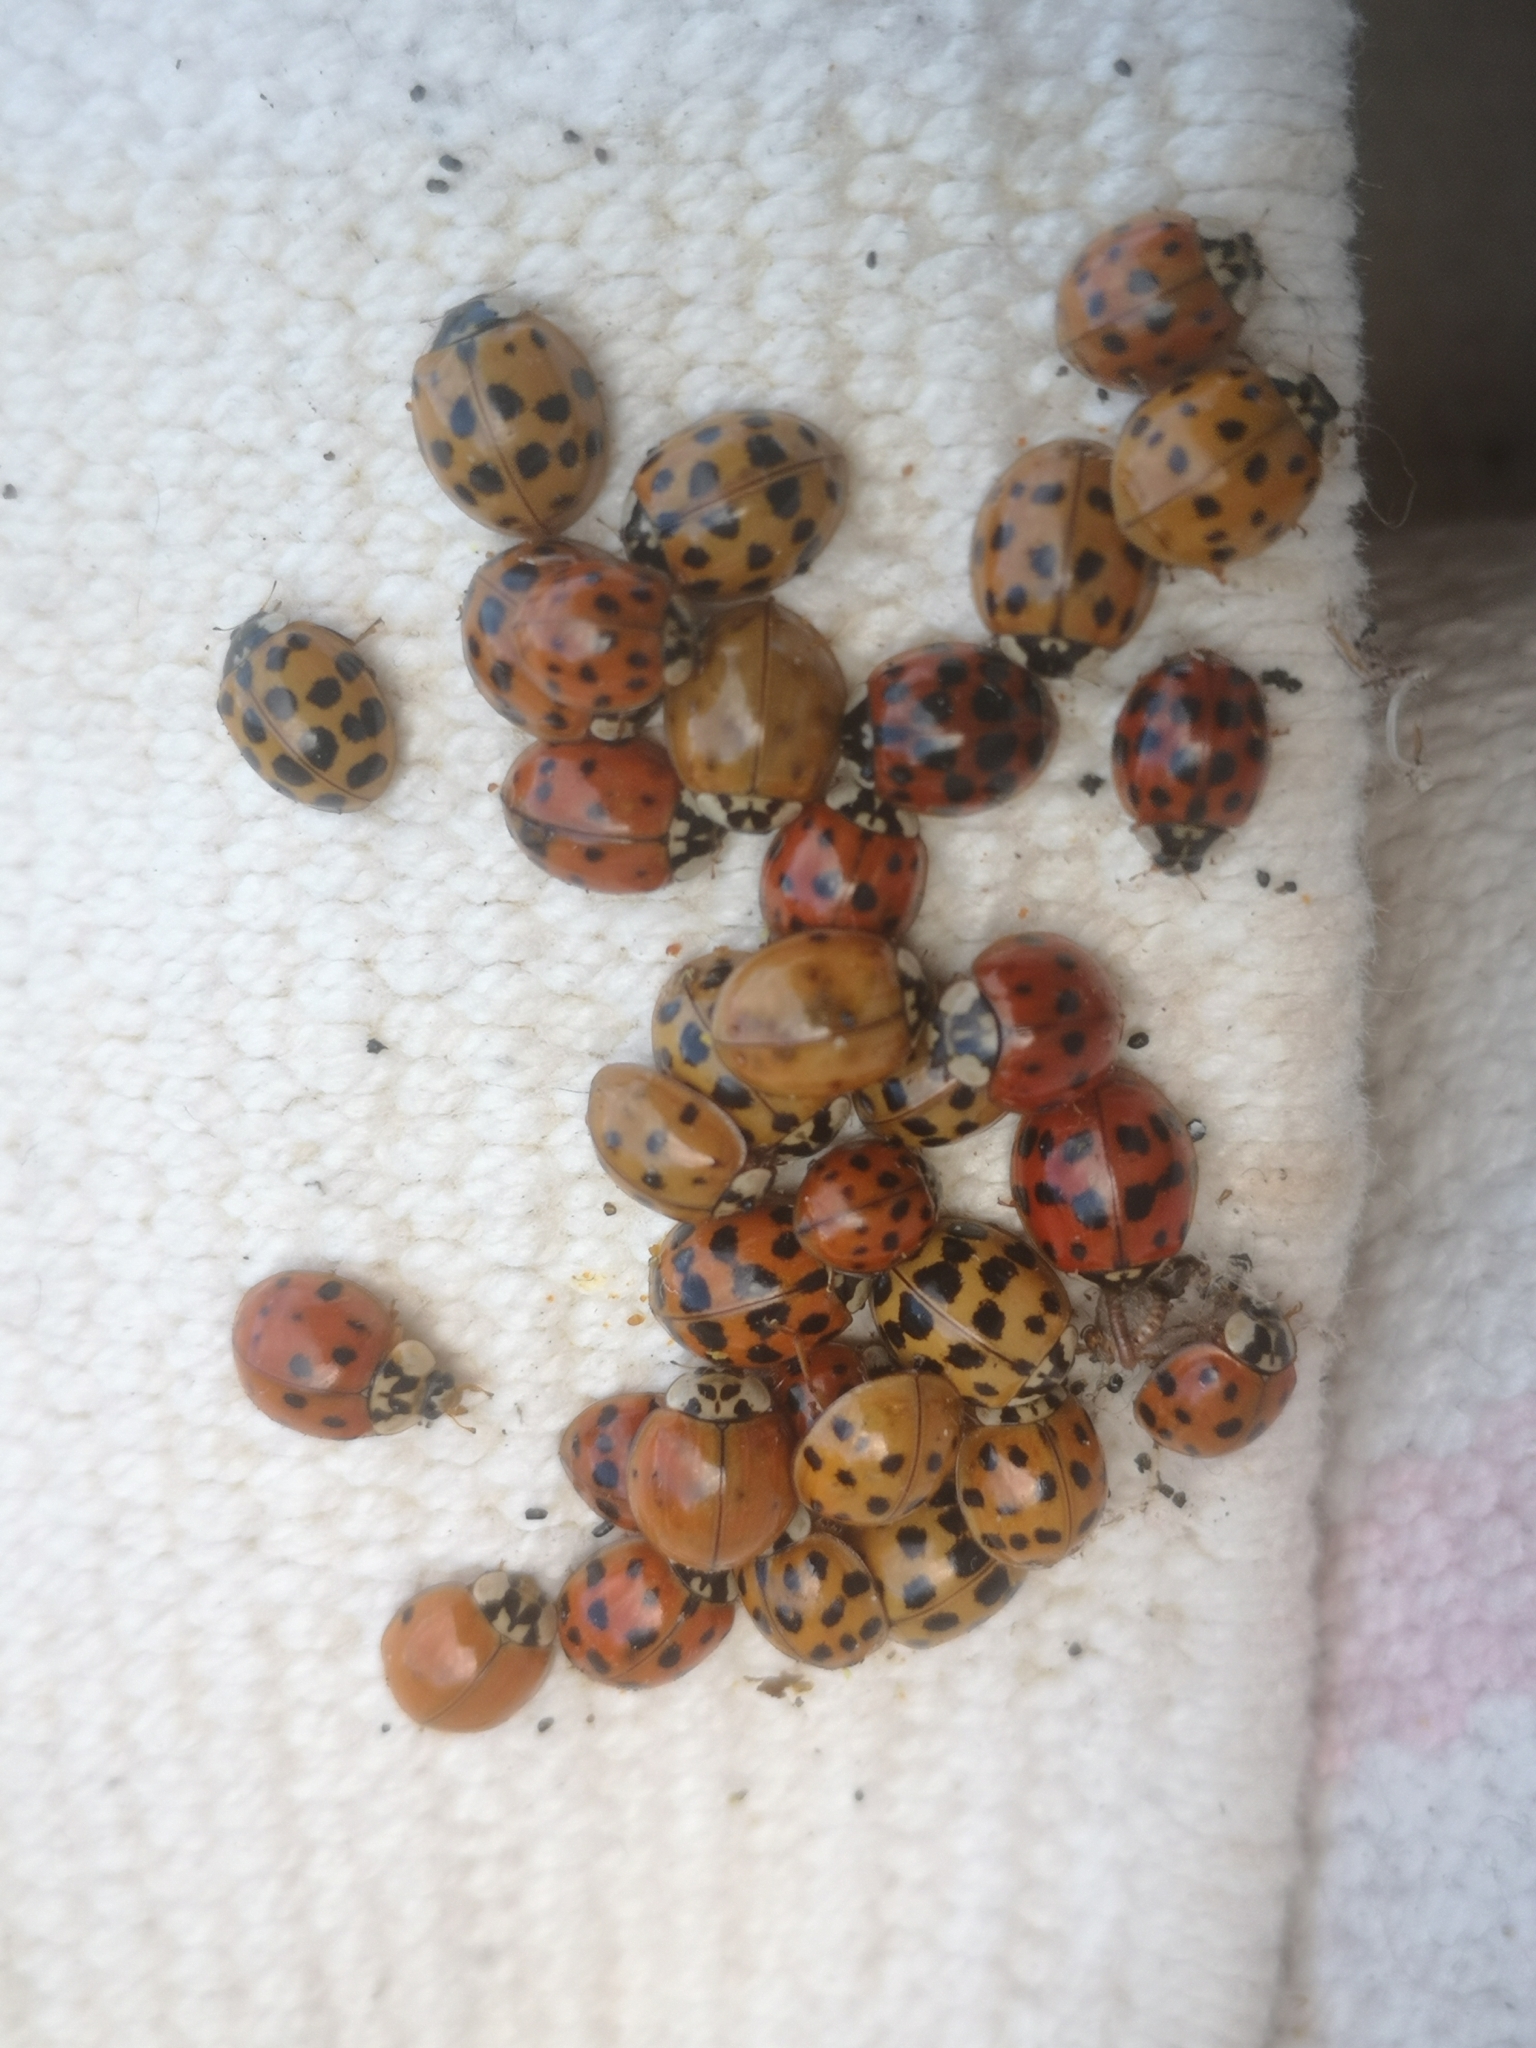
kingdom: Animalia
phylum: Arthropoda
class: Insecta
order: Coleoptera
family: Coccinellidae
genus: Harmonia
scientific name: Harmonia axyridis
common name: Harlequin ladybird
